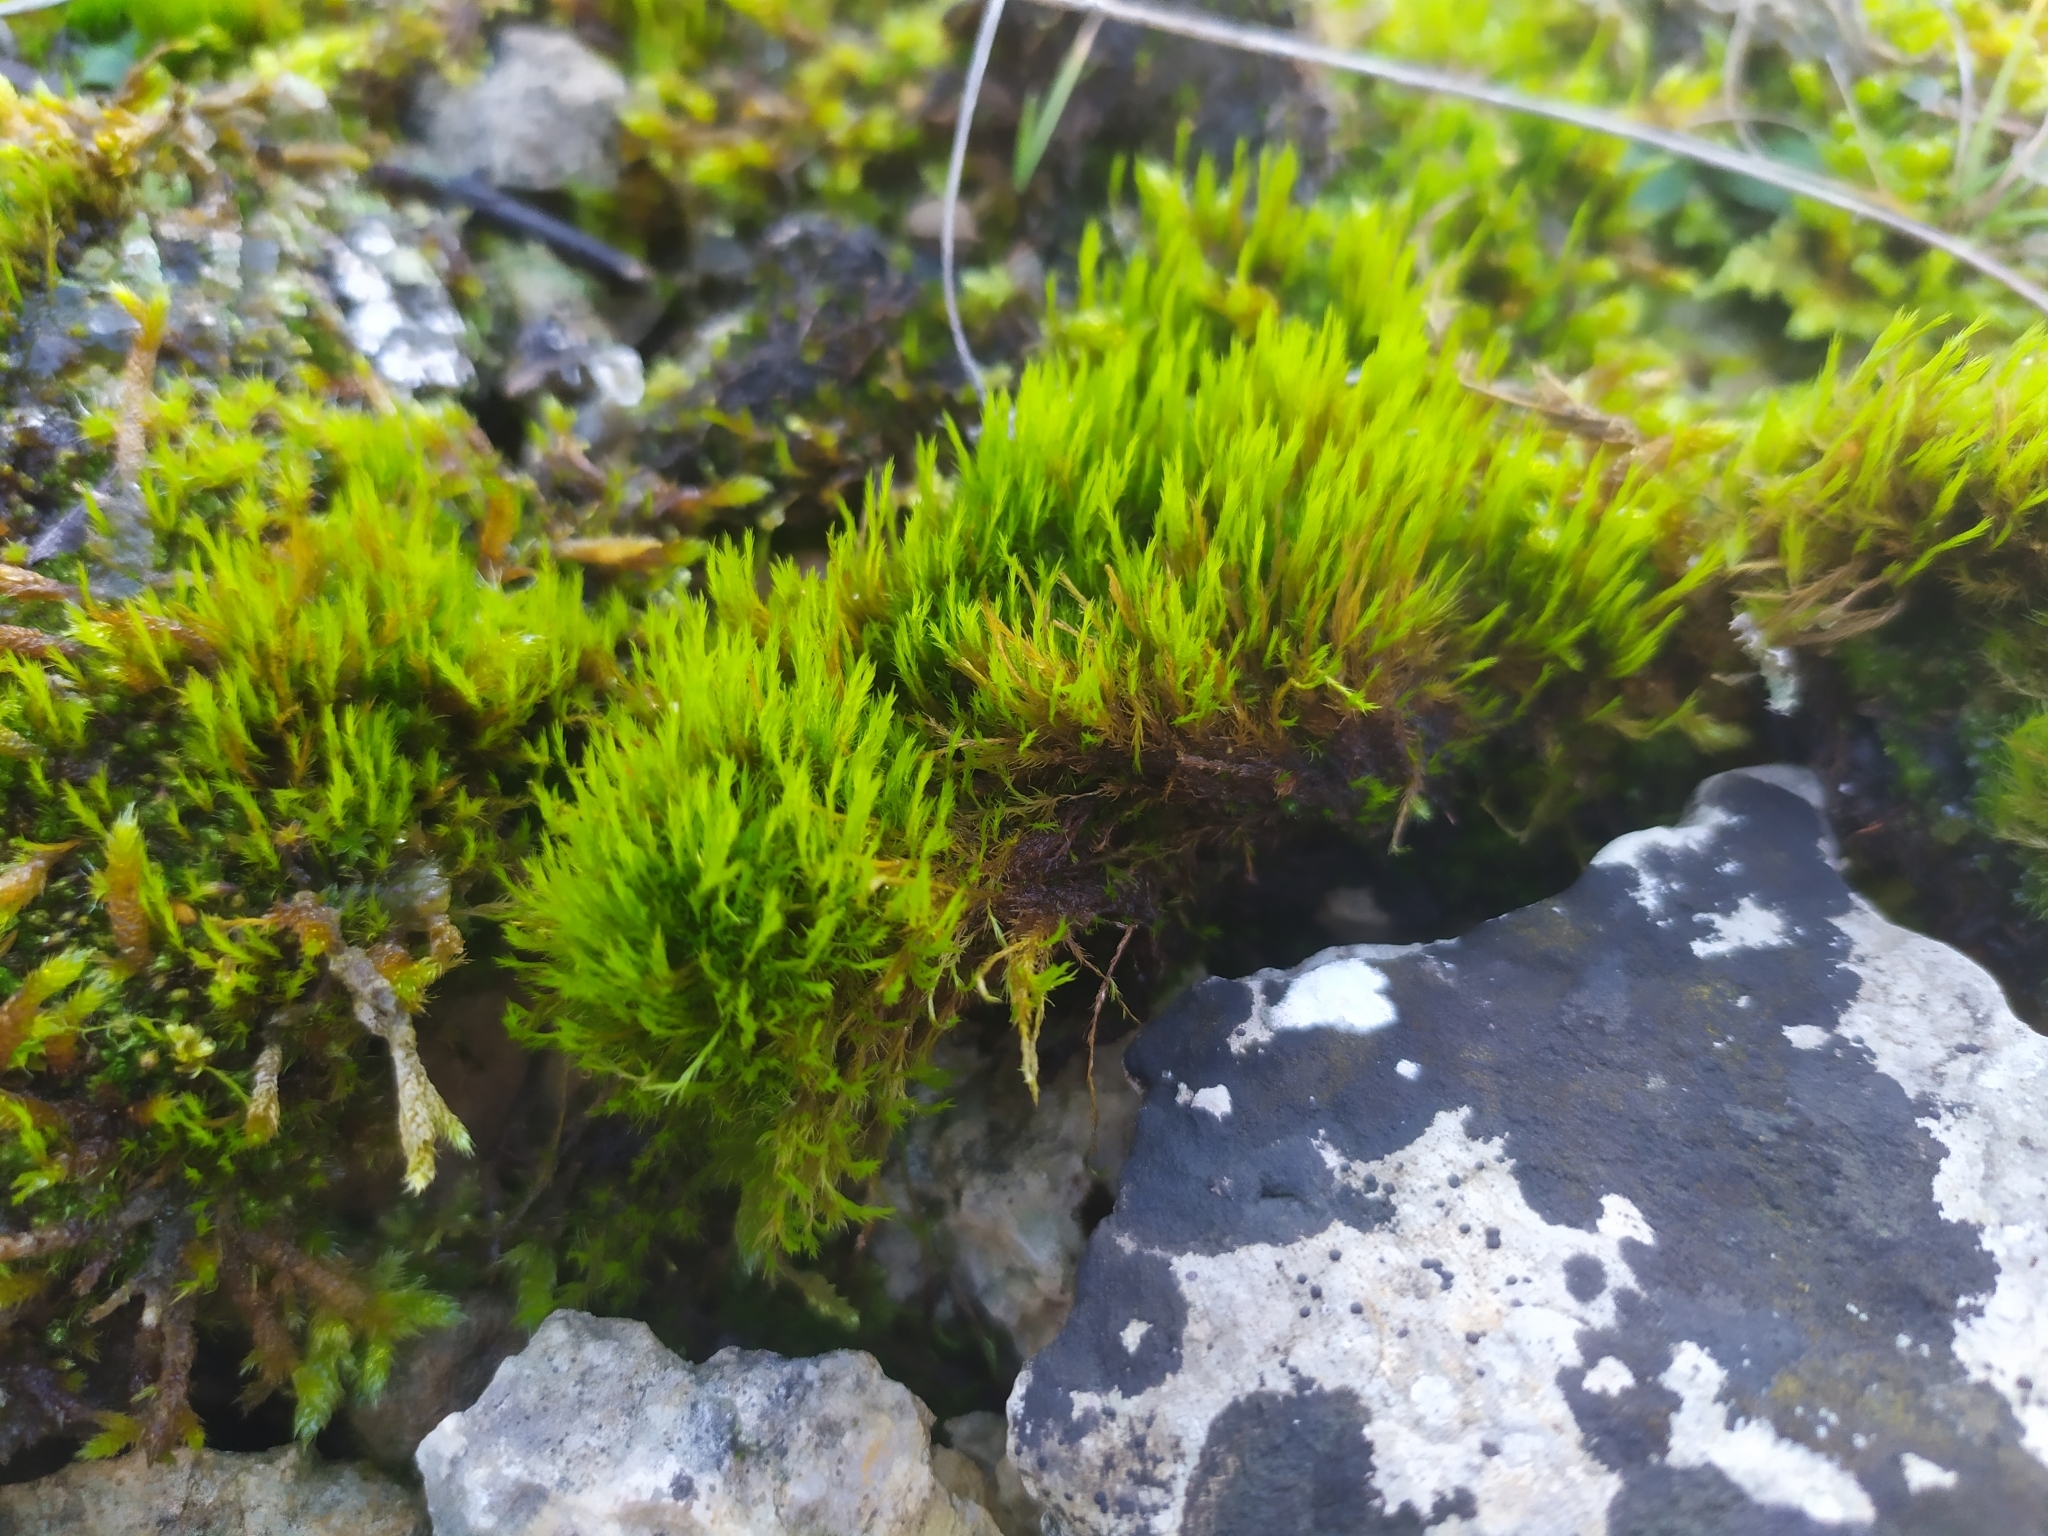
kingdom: Plantae
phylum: Bryophyta
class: Bryopsida
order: Scouleriales
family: Flexitrichaceae
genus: Flexitrichum
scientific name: Flexitrichum flexicaule
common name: Bendy ditrichum
